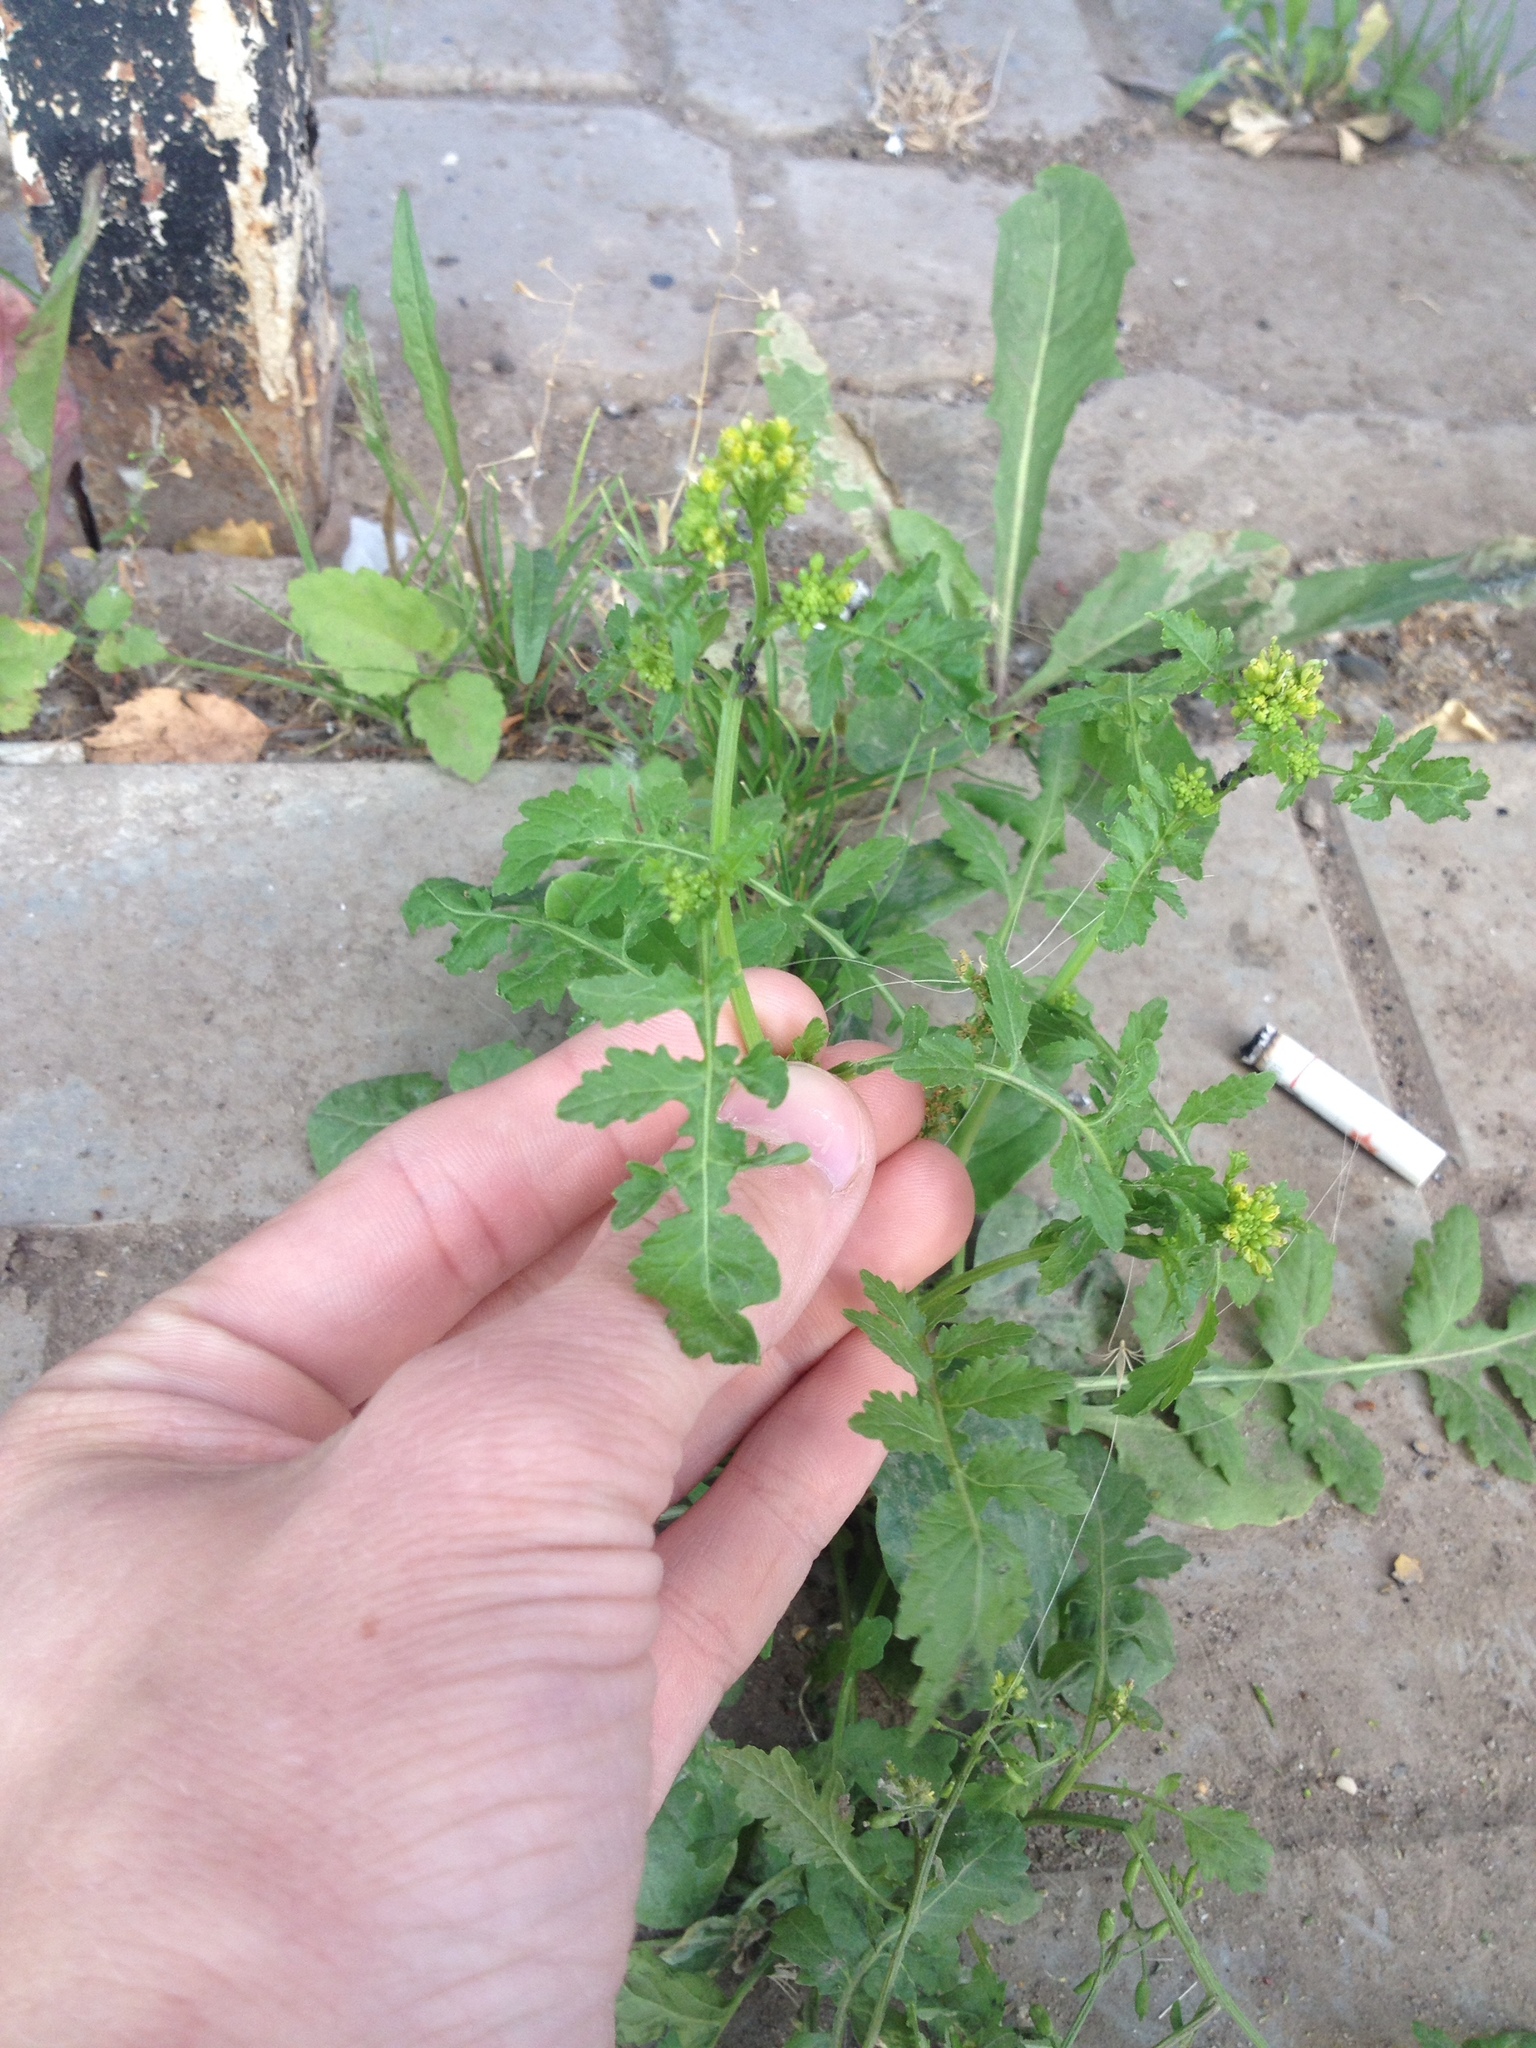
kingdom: Plantae
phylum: Tracheophyta
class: Magnoliopsida
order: Brassicales
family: Brassicaceae
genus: Rorippa
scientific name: Rorippa palustris
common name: Marsh yellow-cress
